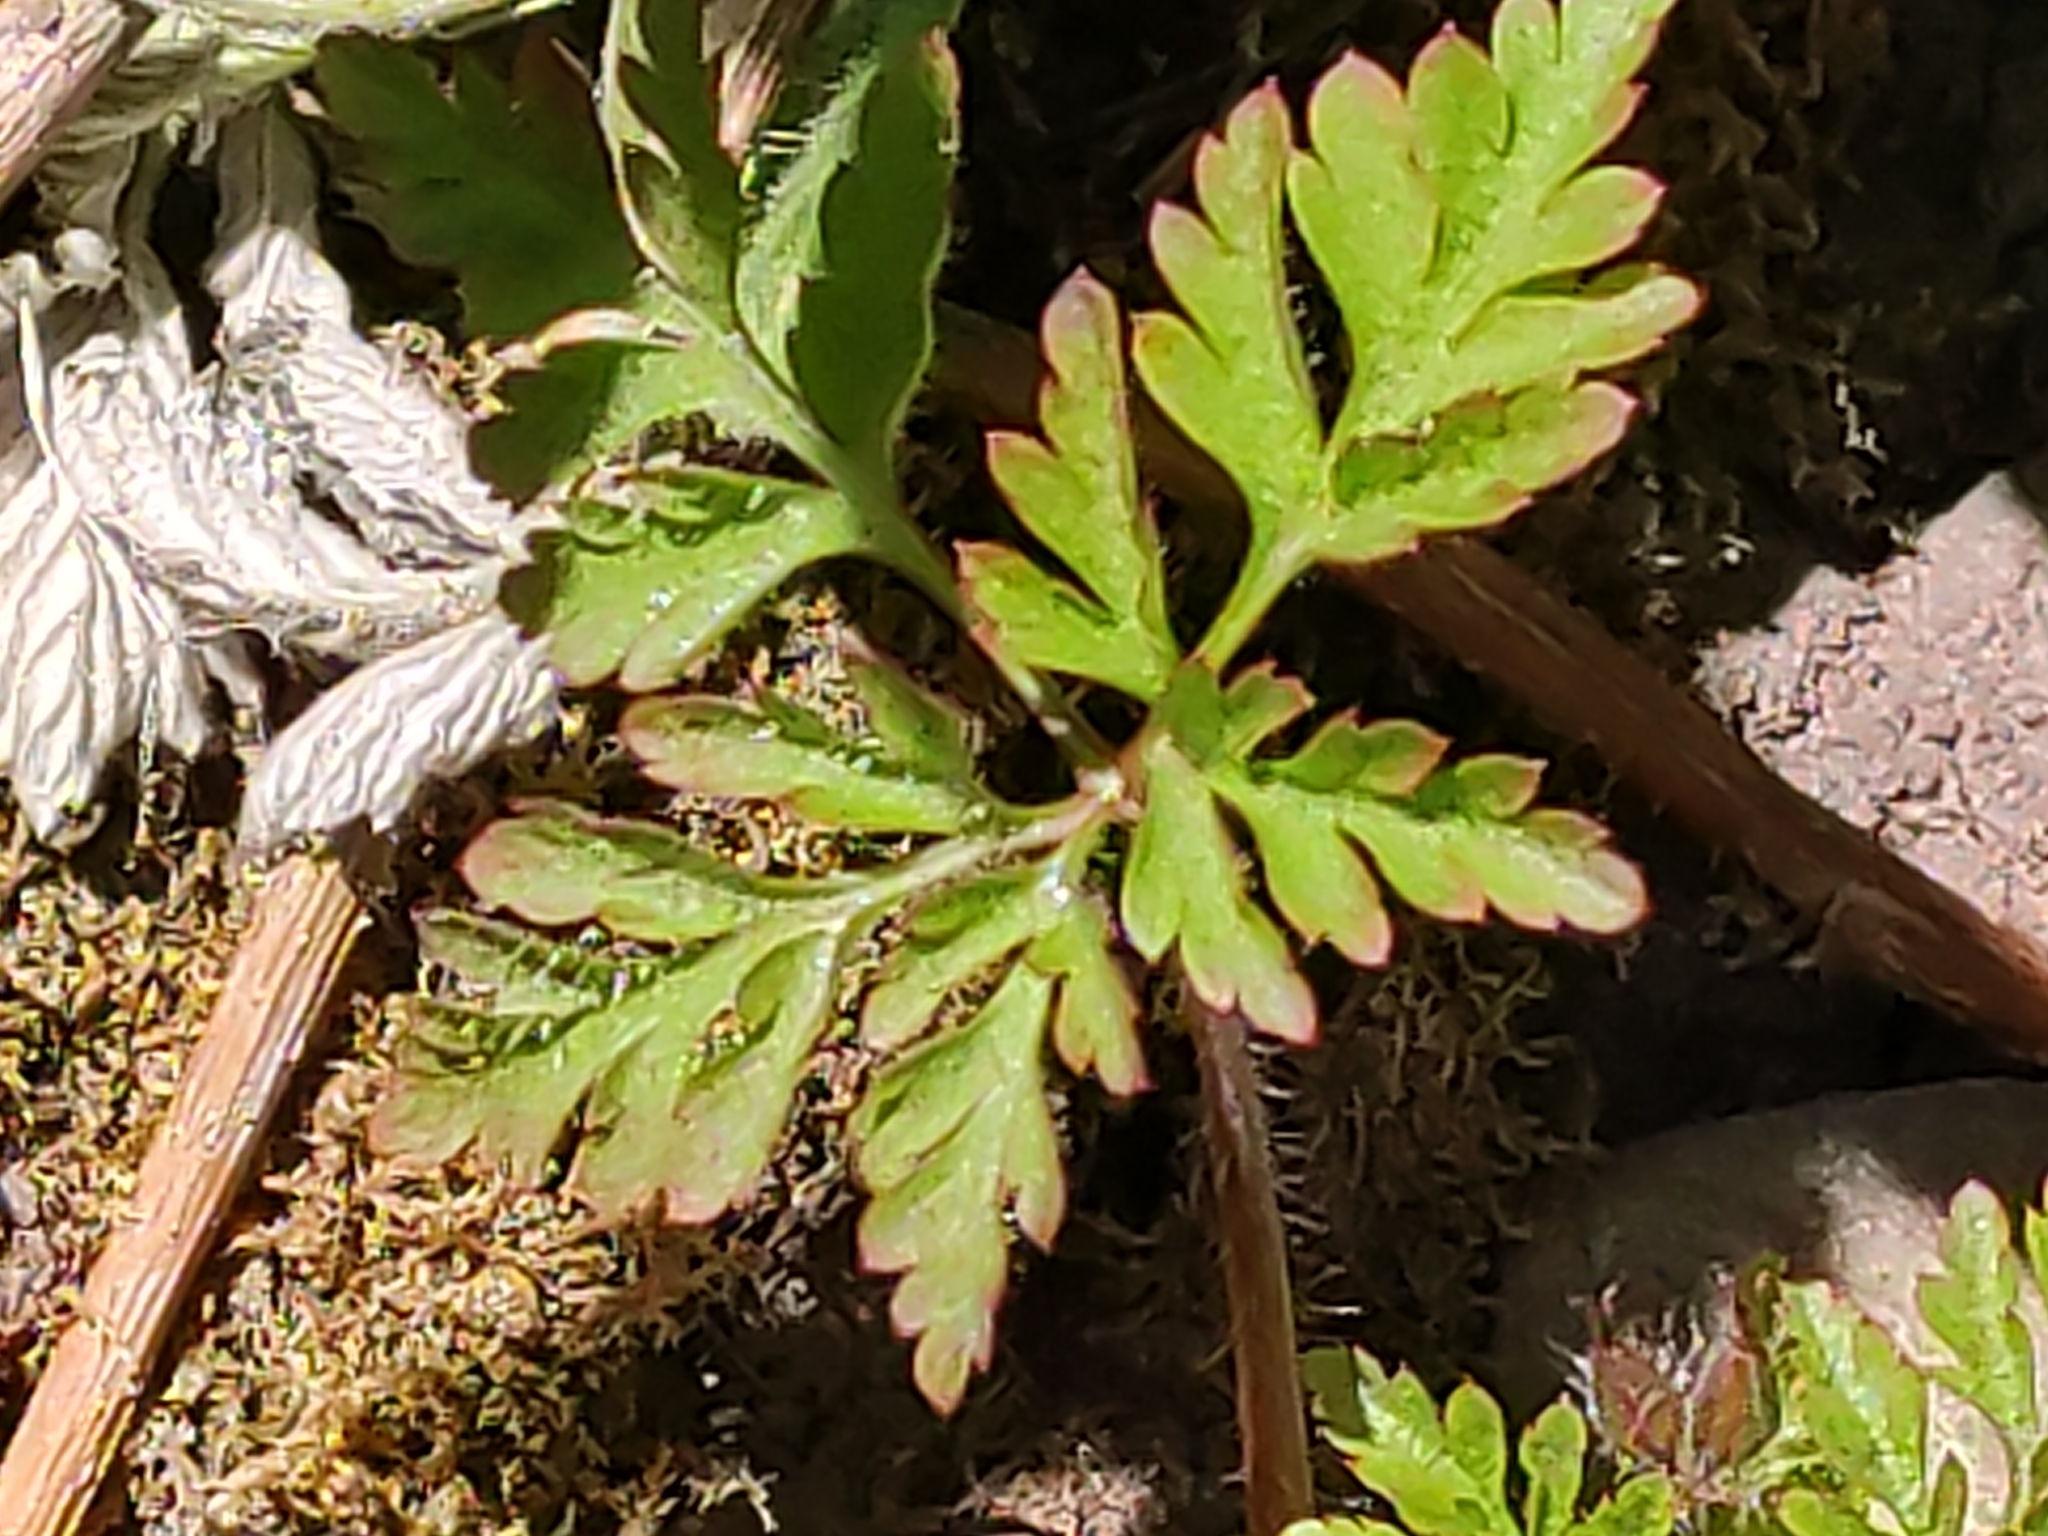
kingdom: Plantae
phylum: Tracheophyta
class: Magnoliopsida
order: Geraniales
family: Geraniaceae
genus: Geranium
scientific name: Geranium robertianum
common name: Herb-robert
